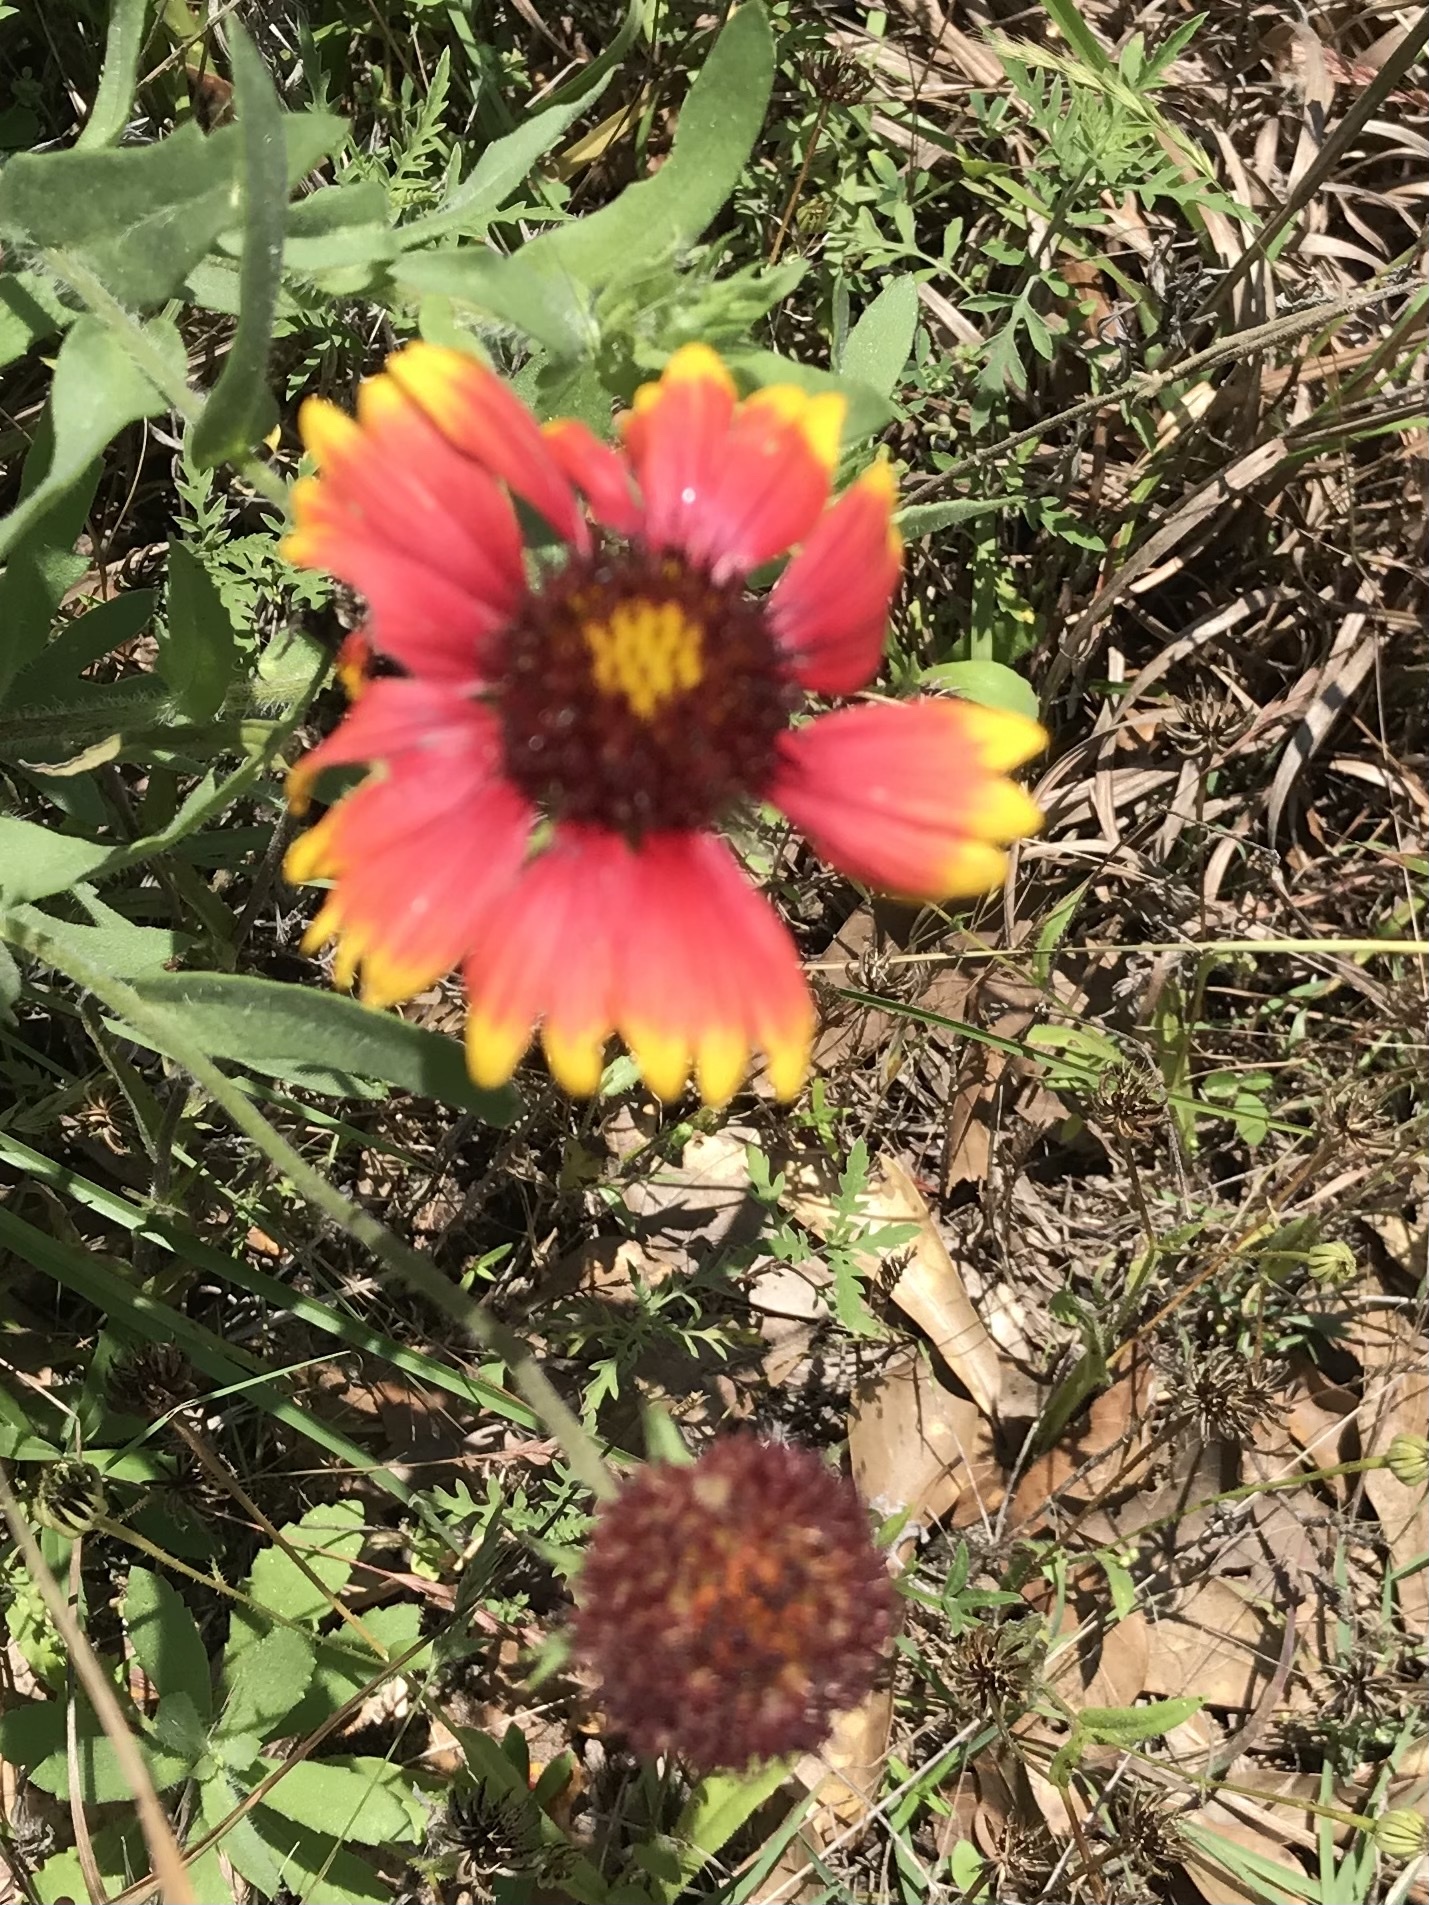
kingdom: Plantae
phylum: Tracheophyta
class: Magnoliopsida
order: Asterales
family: Asteraceae
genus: Gaillardia
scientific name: Gaillardia pulchella
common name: Firewheel
